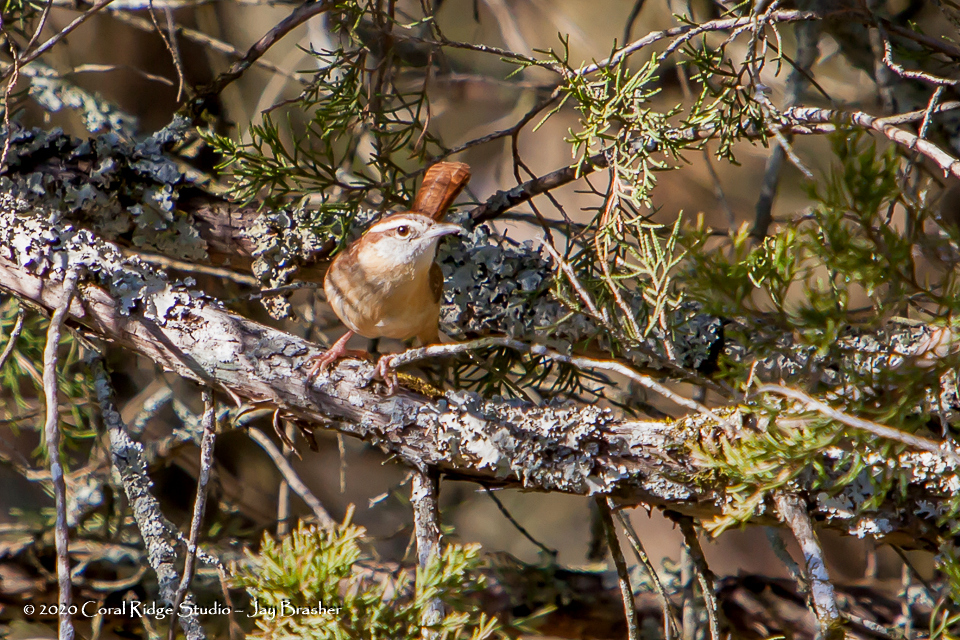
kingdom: Animalia
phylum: Chordata
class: Aves
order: Passeriformes
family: Troglodytidae
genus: Thryothorus
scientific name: Thryothorus ludovicianus
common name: Carolina wren
